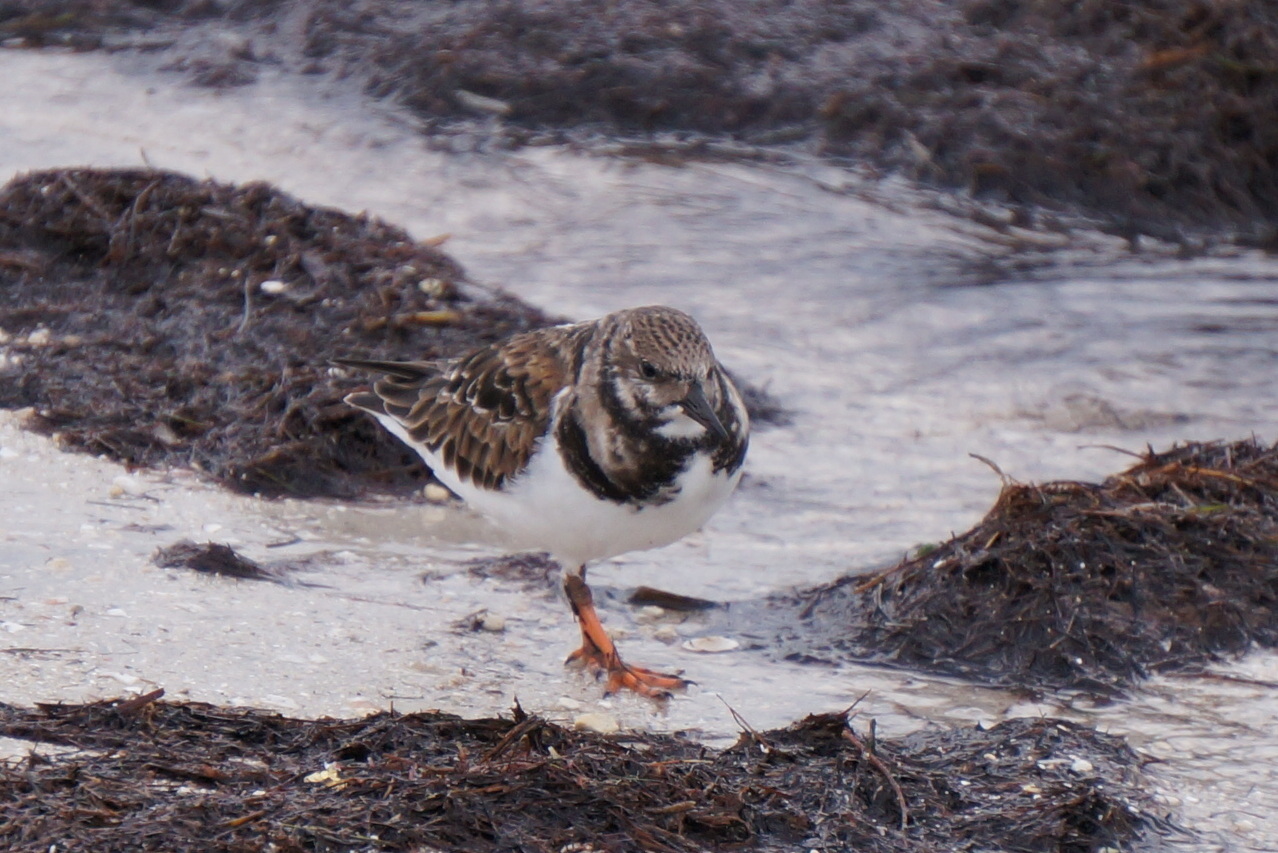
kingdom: Animalia
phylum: Chordata
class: Aves
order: Charadriiformes
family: Scolopacidae
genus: Arenaria
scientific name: Arenaria interpres
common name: Ruddy turnstone
